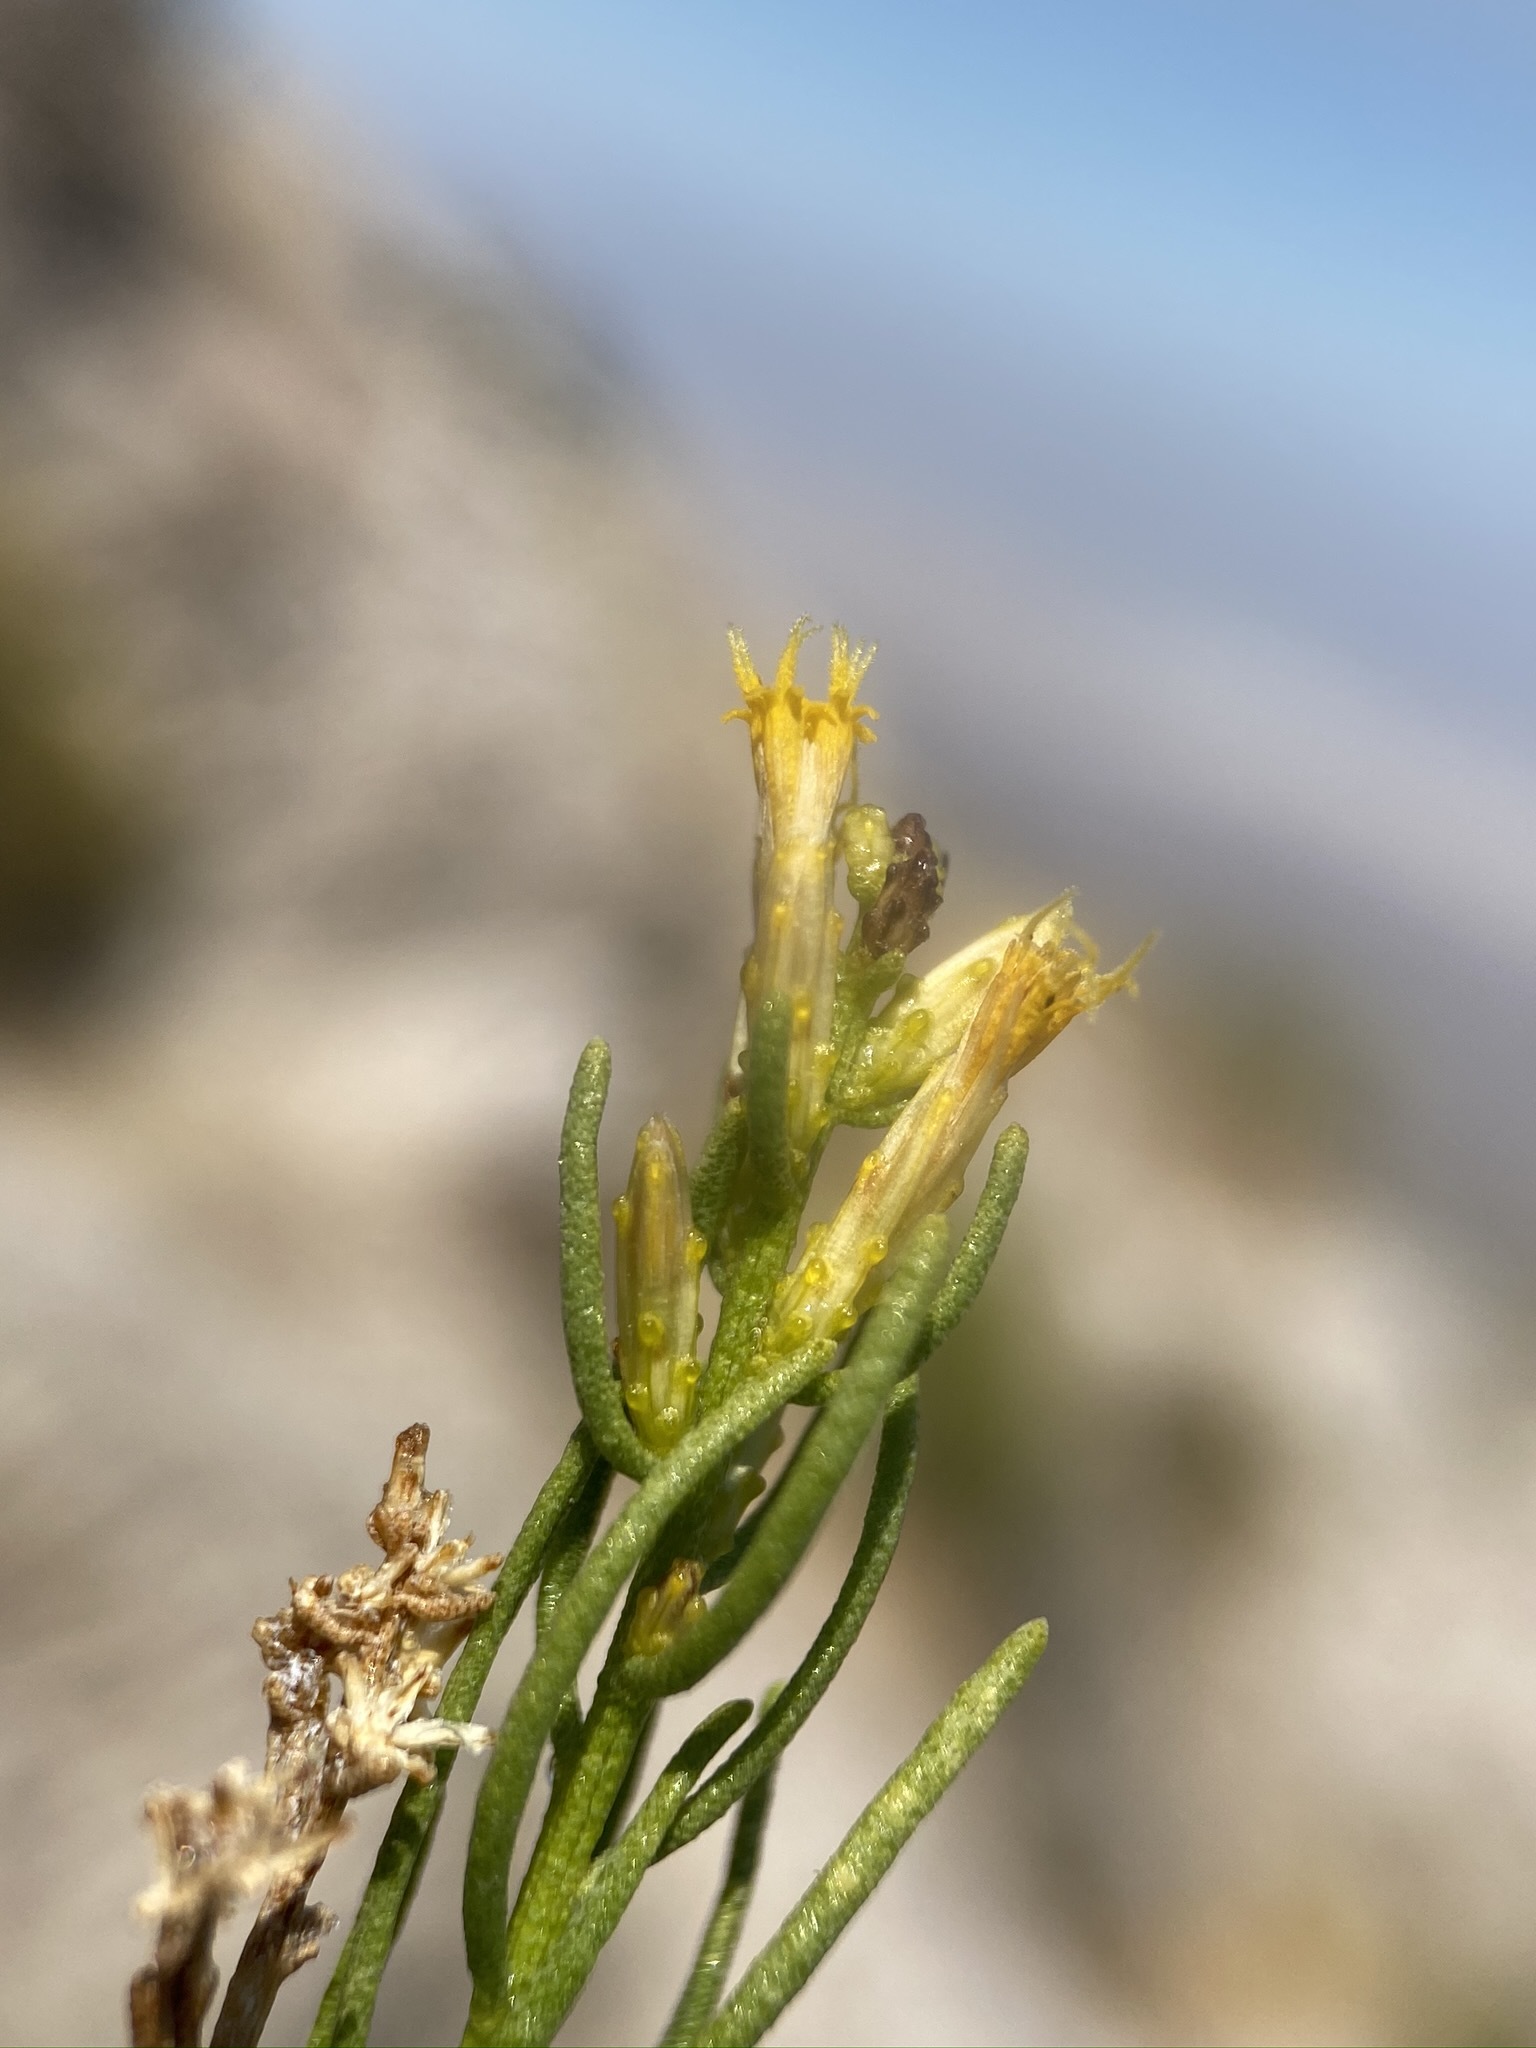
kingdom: Plantae
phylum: Tracheophyta
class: Magnoliopsida
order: Asterales
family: Asteraceae
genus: Ericameria
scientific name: Ericameria teretifolia
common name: Round-leaf rabbitbrush
